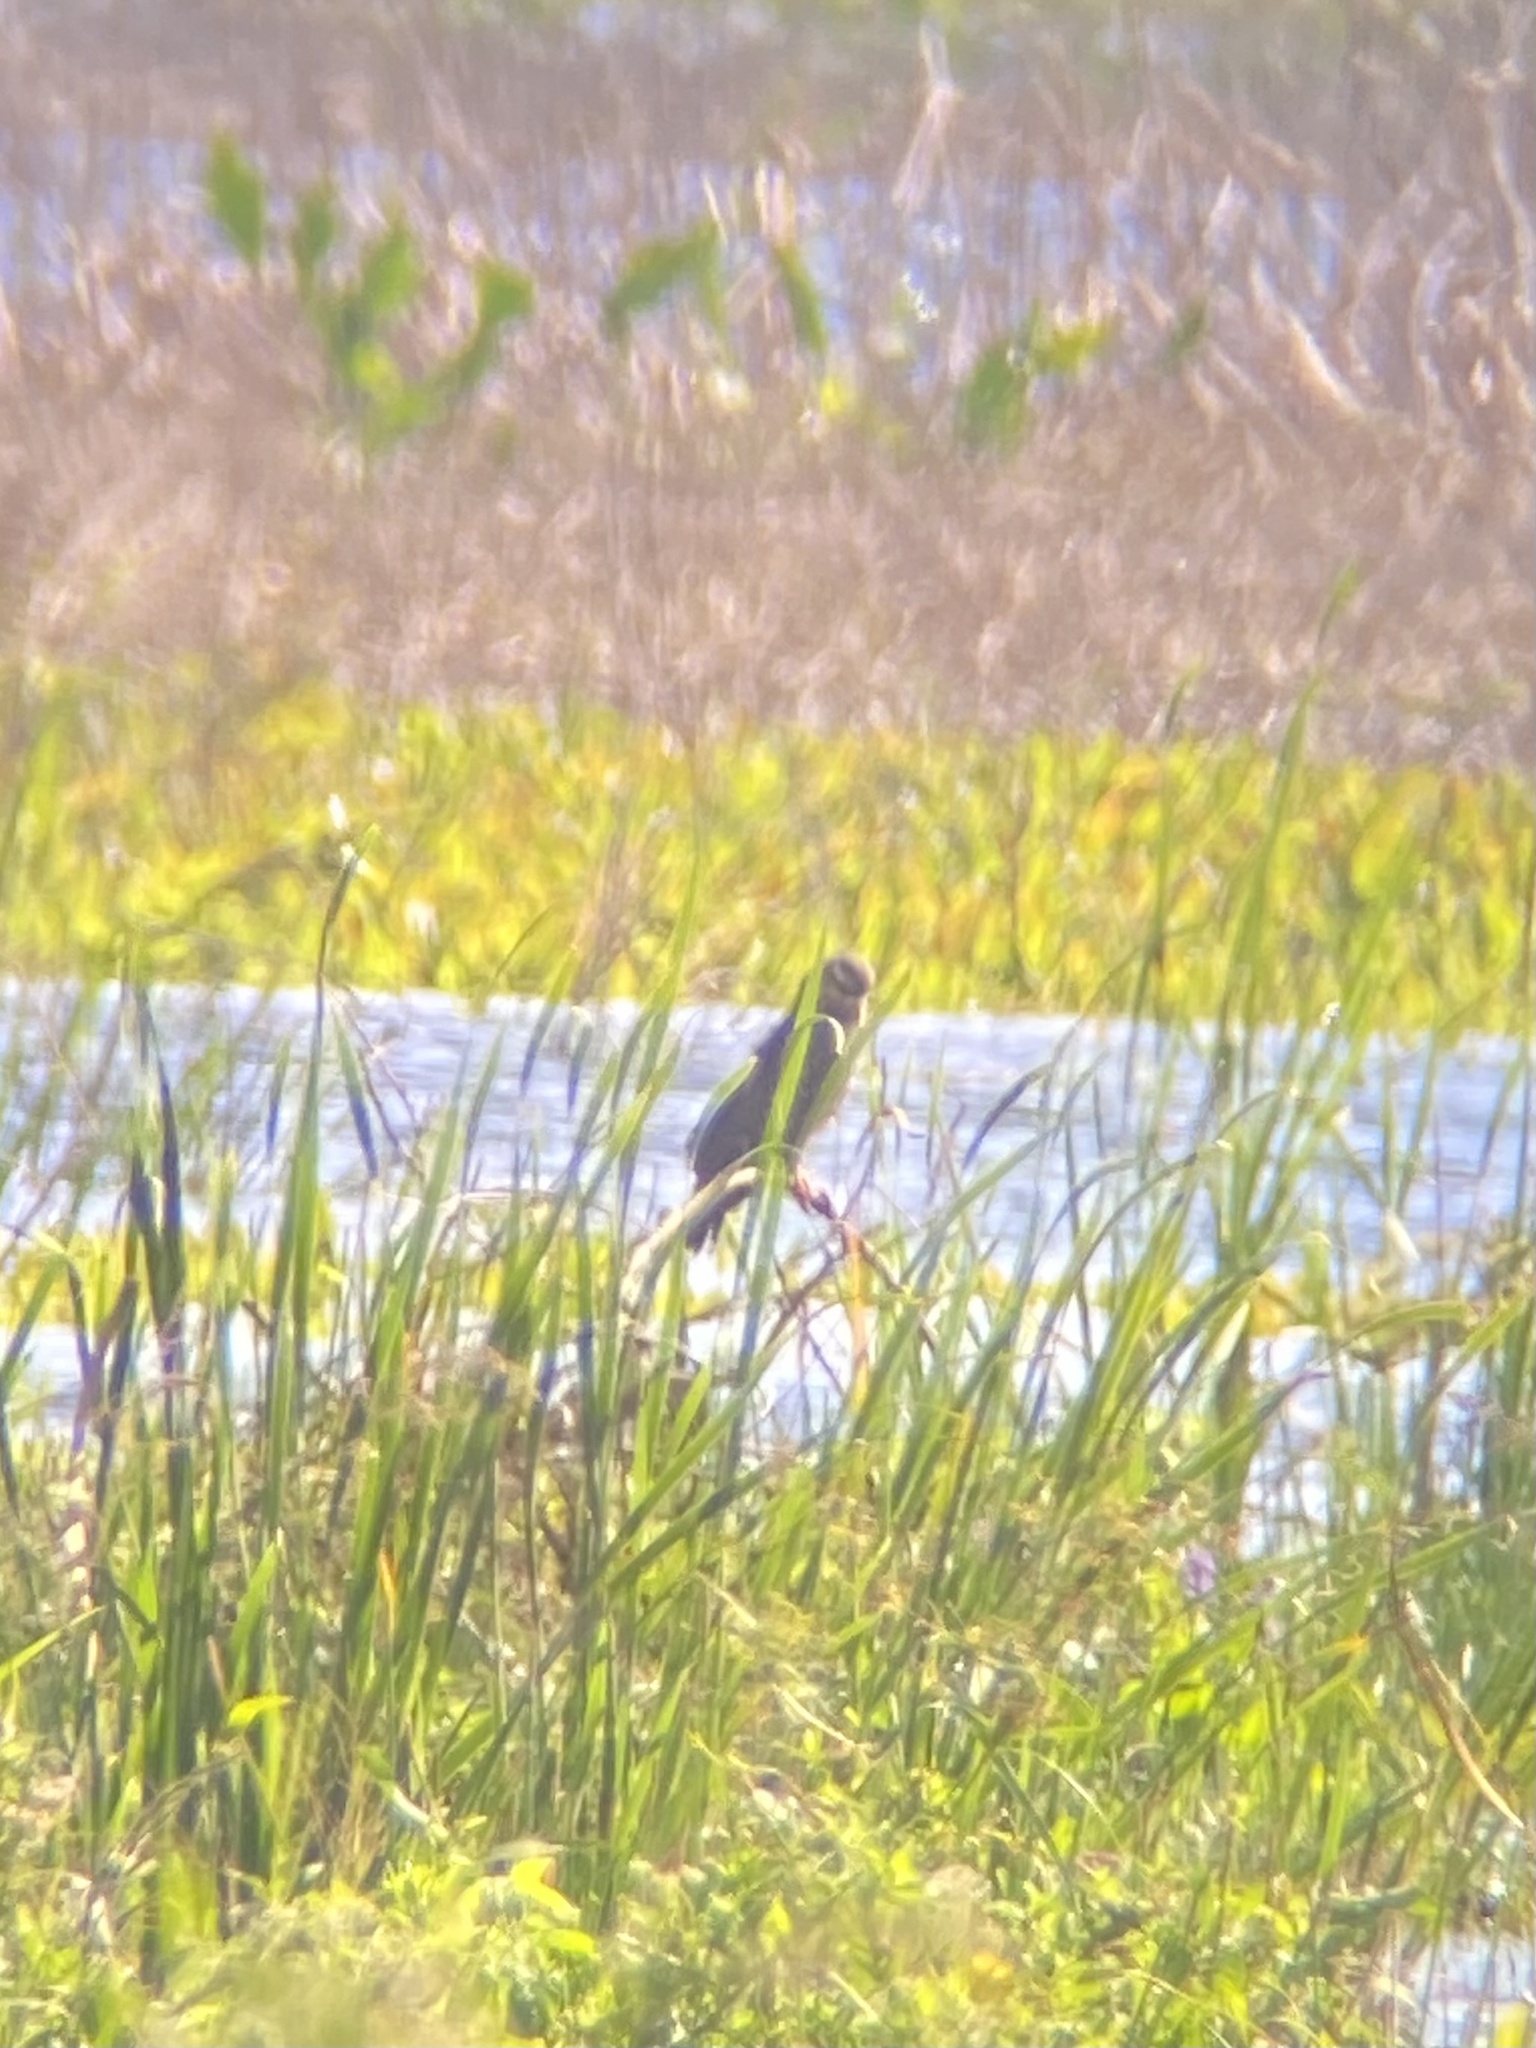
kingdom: Animalia
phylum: Chordata
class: Aves
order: Accipitriformes
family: Accipitridae
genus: Rostrhamus
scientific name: Rostrhamus sociabilis
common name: Snail kite
